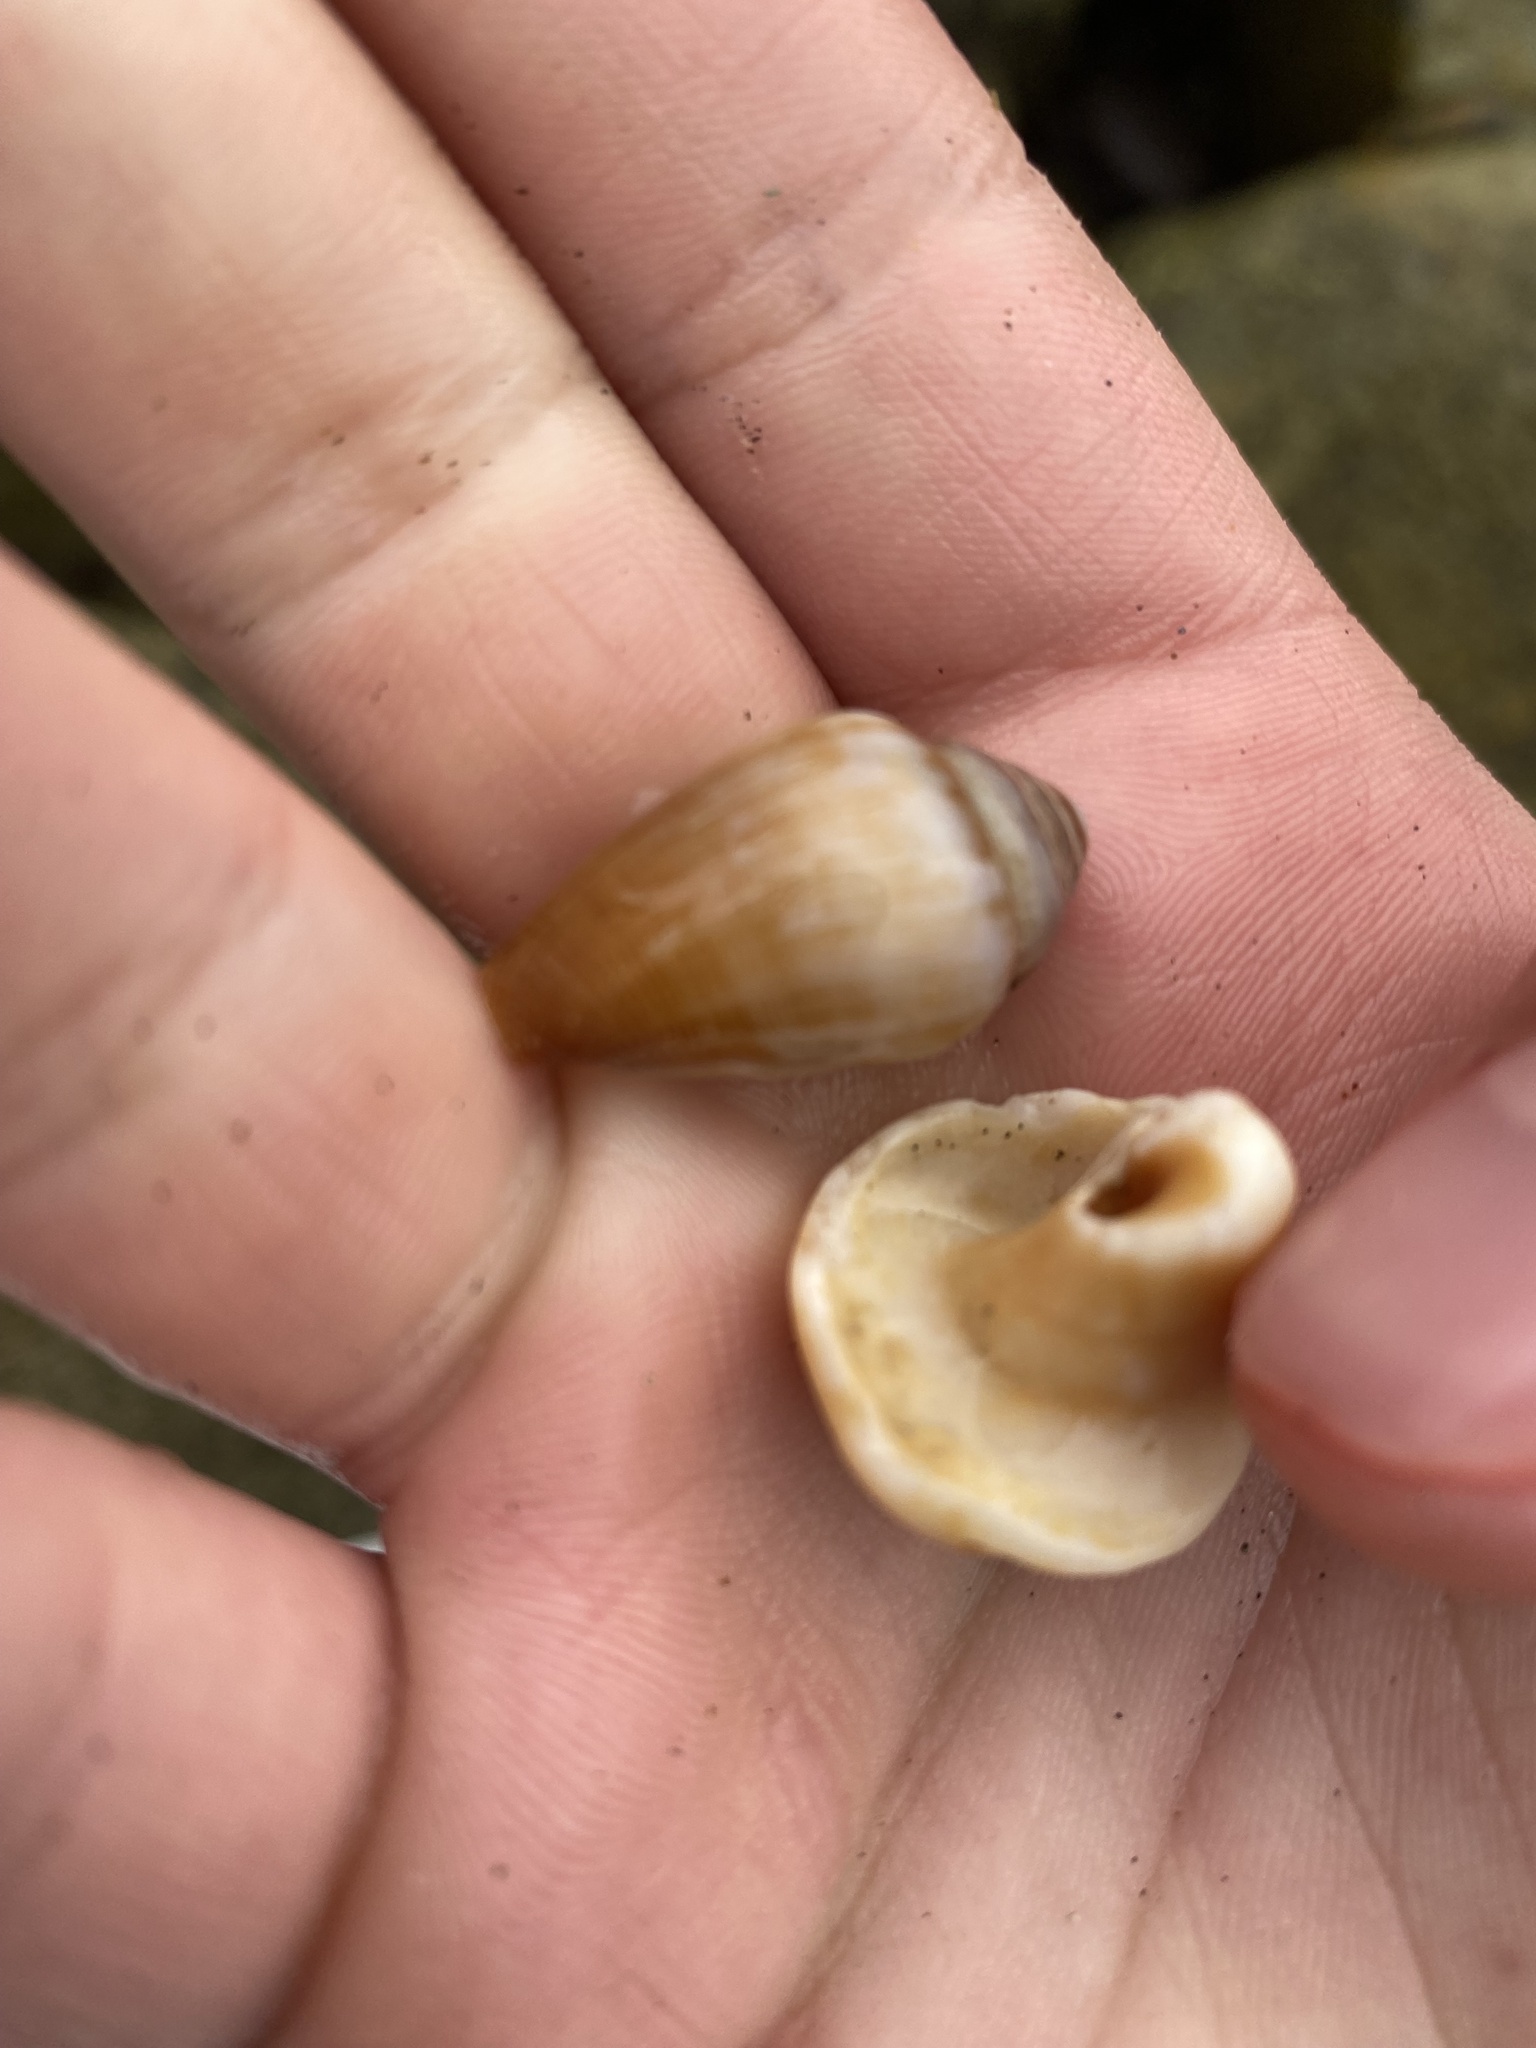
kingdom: Animalia
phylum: Mollusca
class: Gastropoda
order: Neogastropoda
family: Conidae
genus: Californiconus
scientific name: Californiconus californicus
